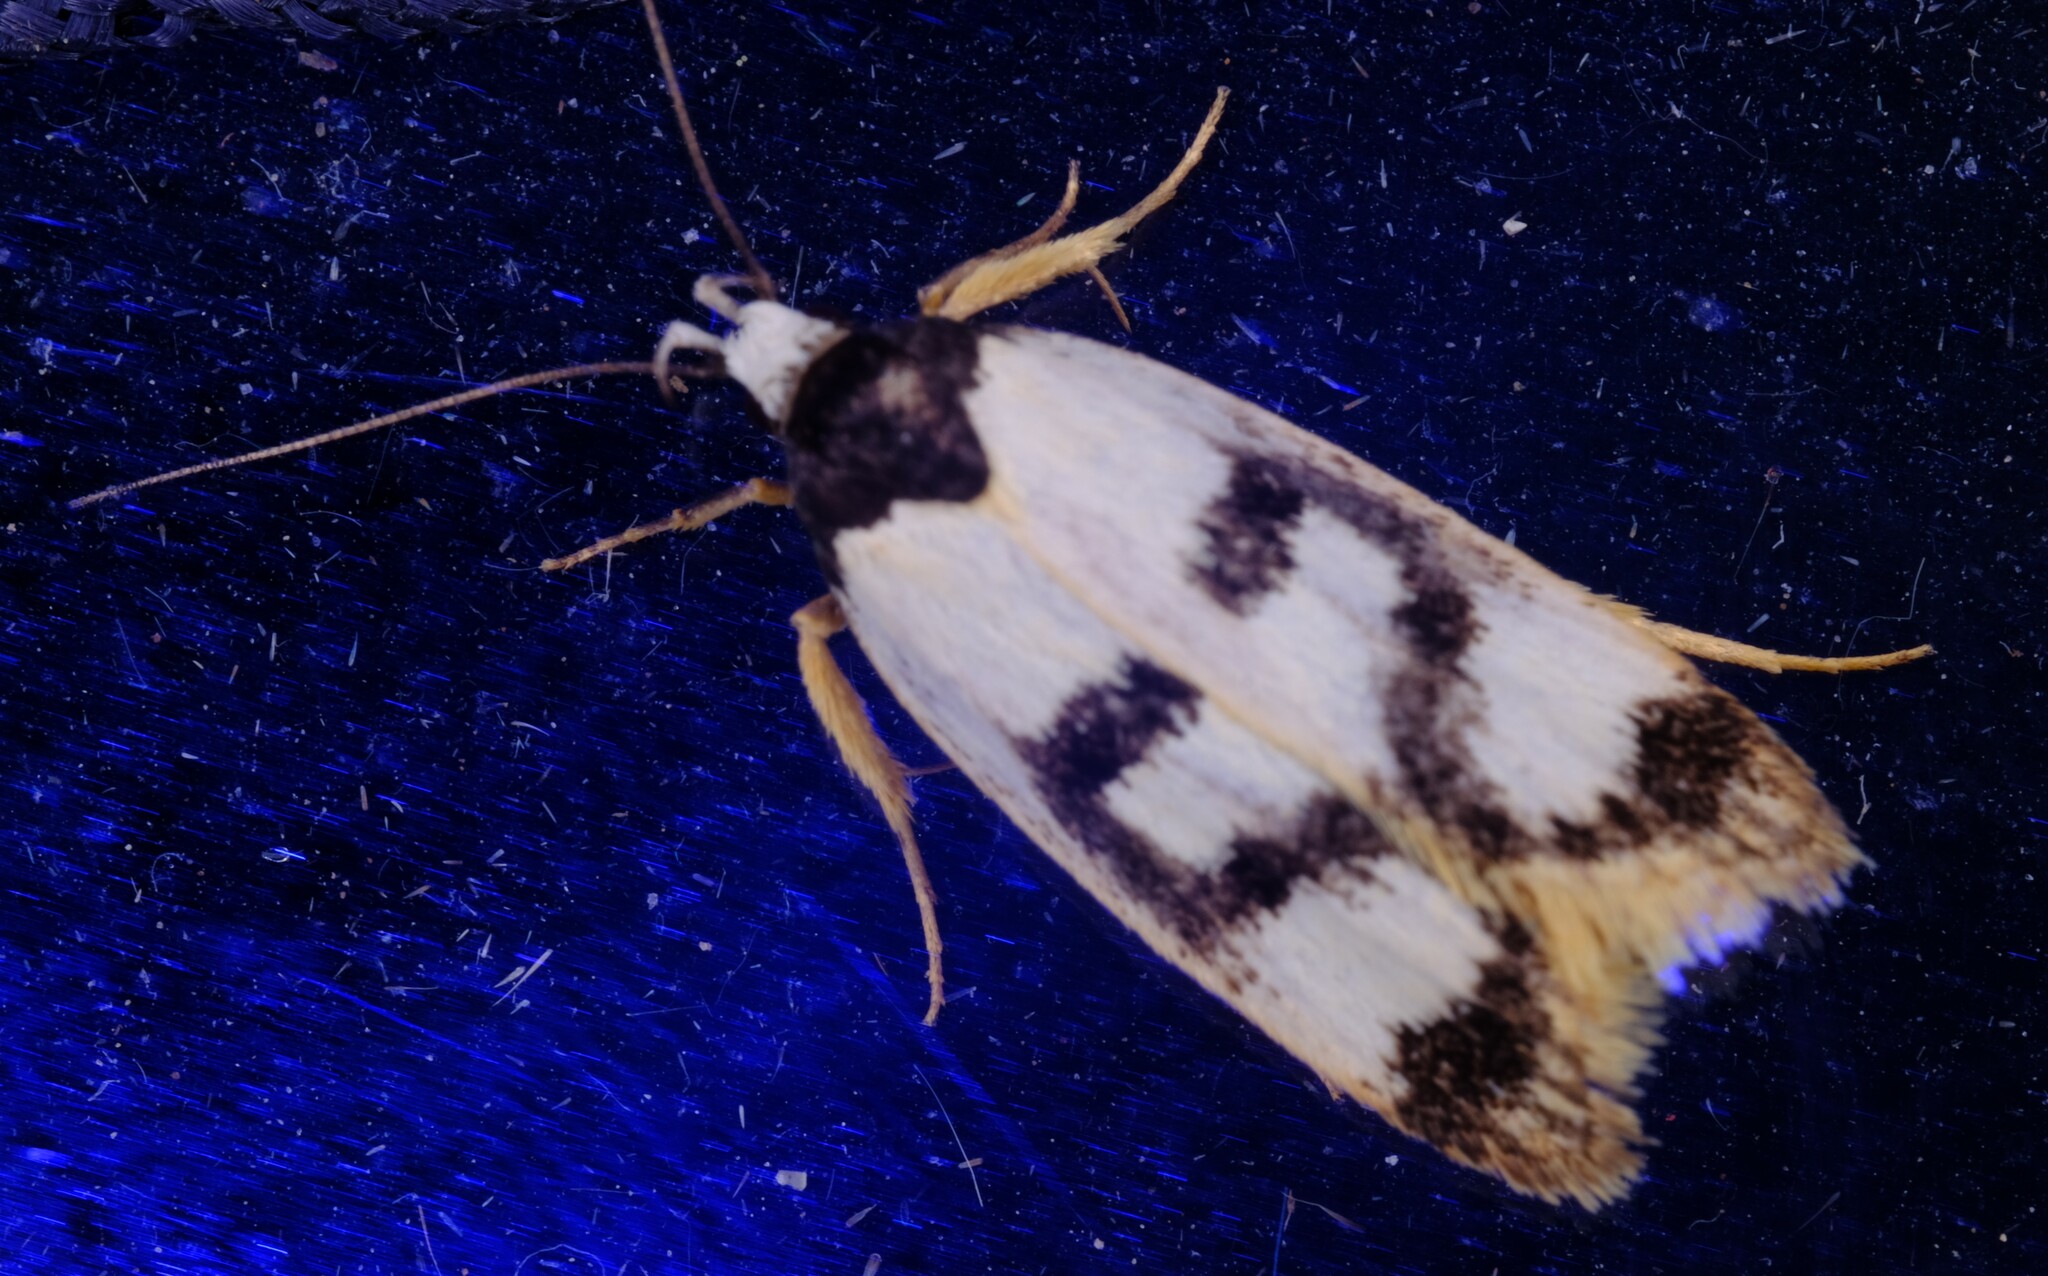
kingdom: Animalia
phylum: Arthropoda
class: Insecta
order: Lepidoptera
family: Oecophoridae
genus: Eulechria
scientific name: Eulechria sigmophora
